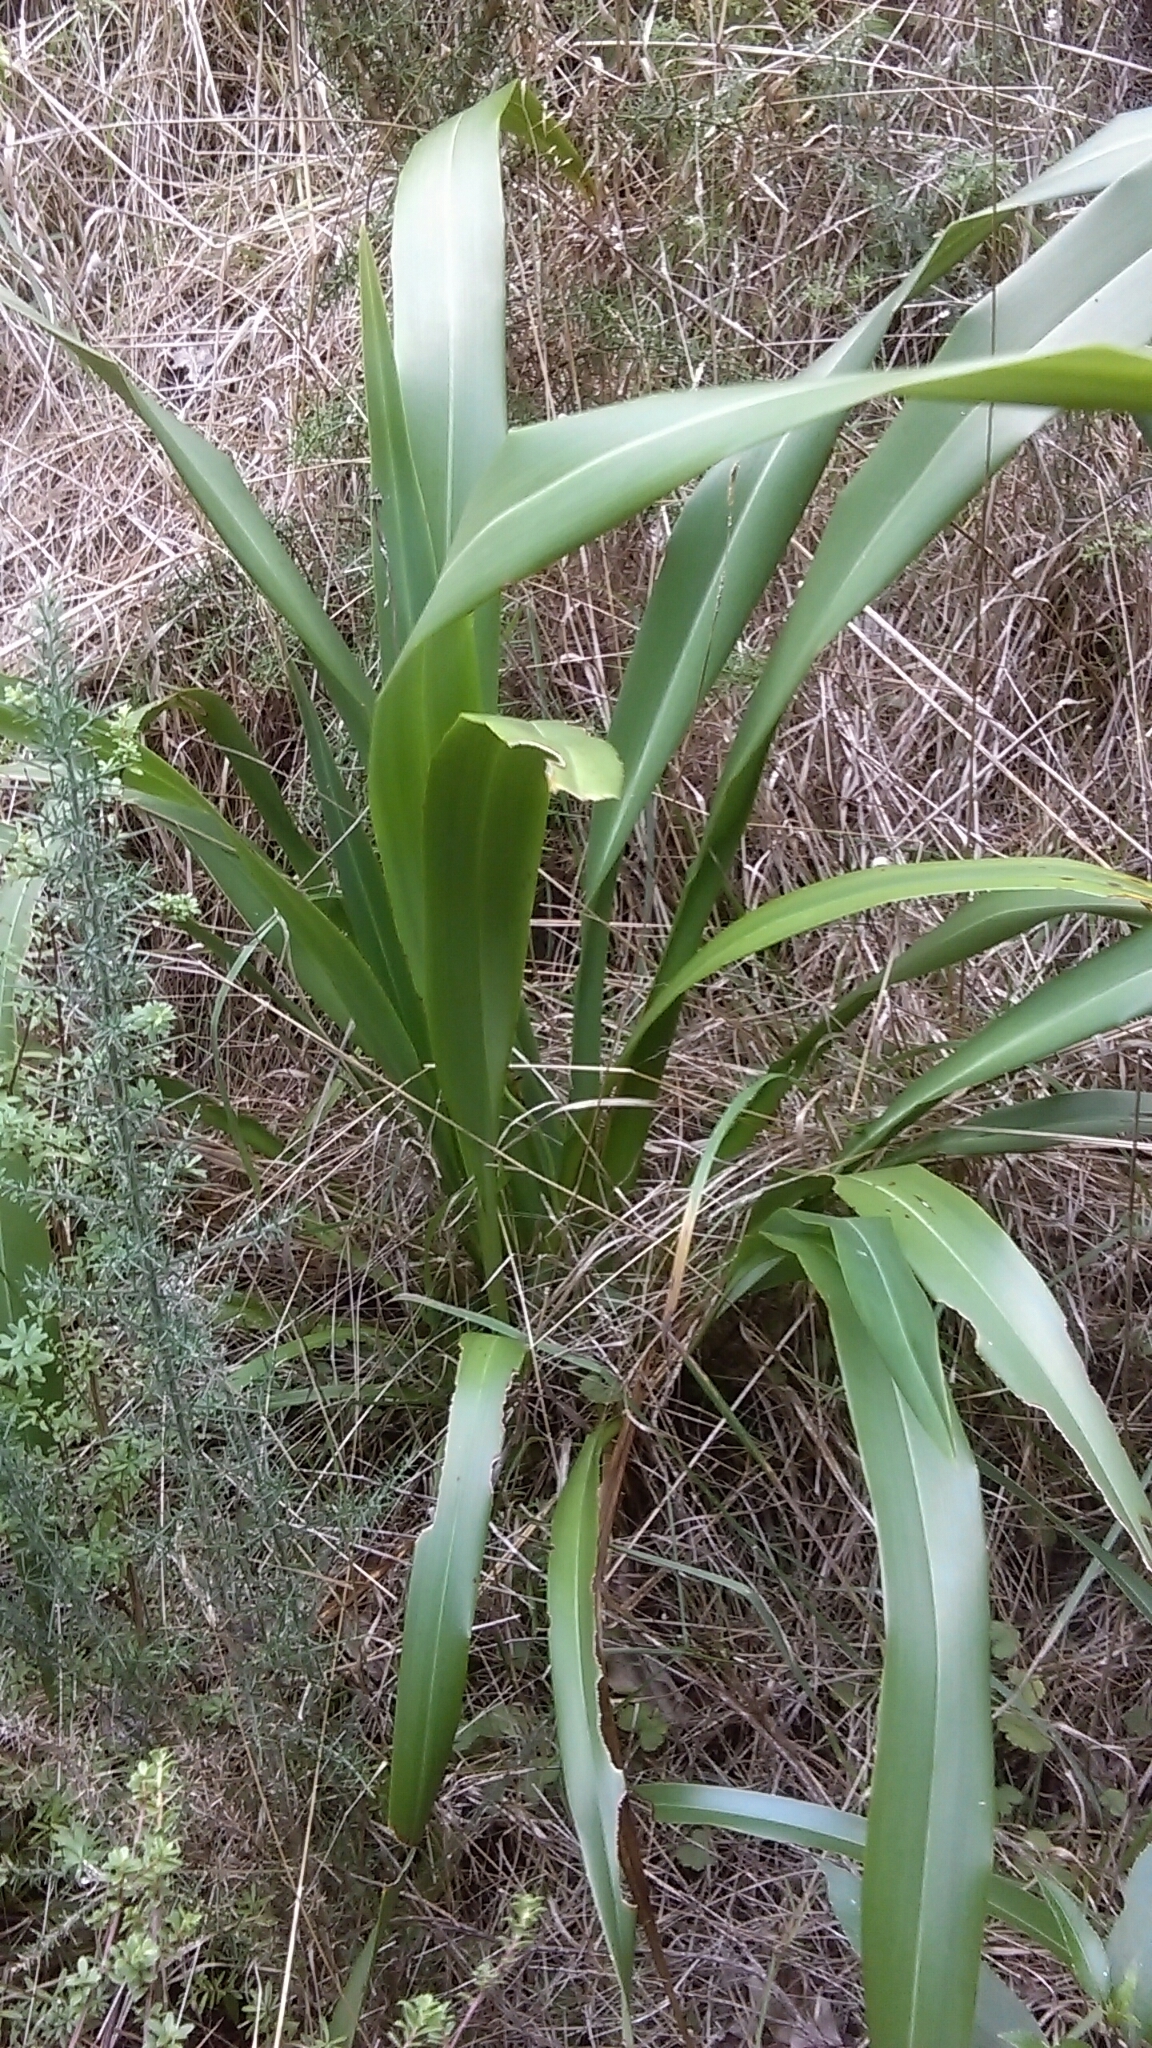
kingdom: Plantae
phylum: Tracheophyta
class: Liliopsida
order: Asparagales
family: Asphodelaceae
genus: Phormium
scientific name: Phormium colensoi
